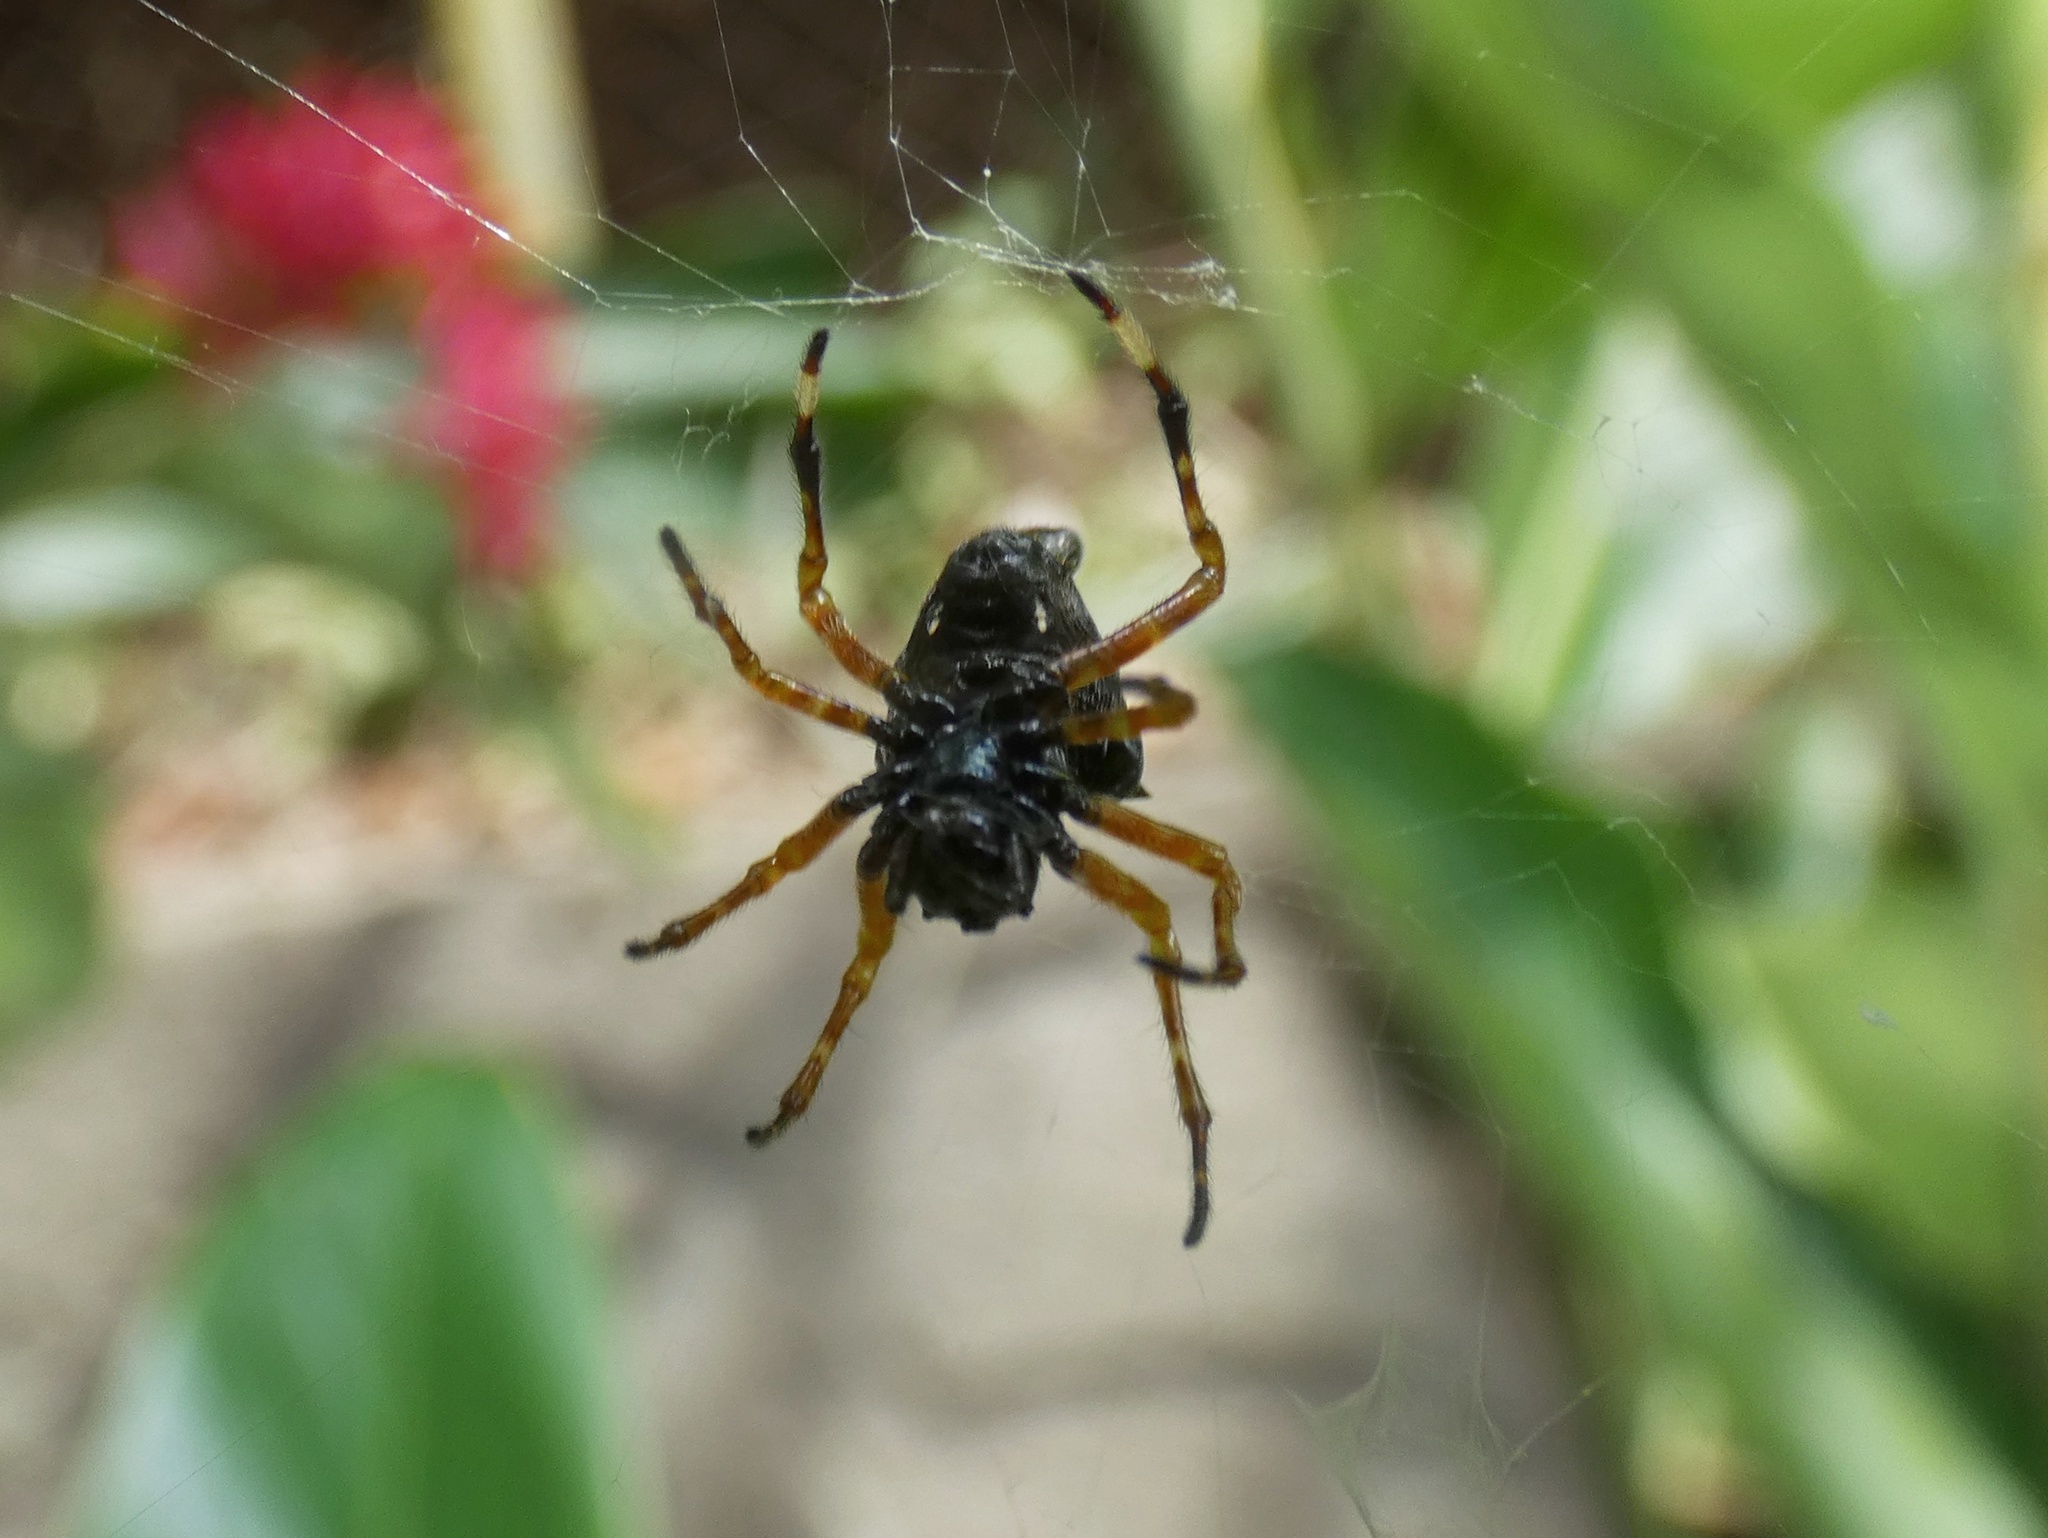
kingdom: Animalia
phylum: Arthropoda
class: Arachnida
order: Araneae
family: Araneidae
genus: Witica
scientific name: Witica crassicauda
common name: Orb weavers
